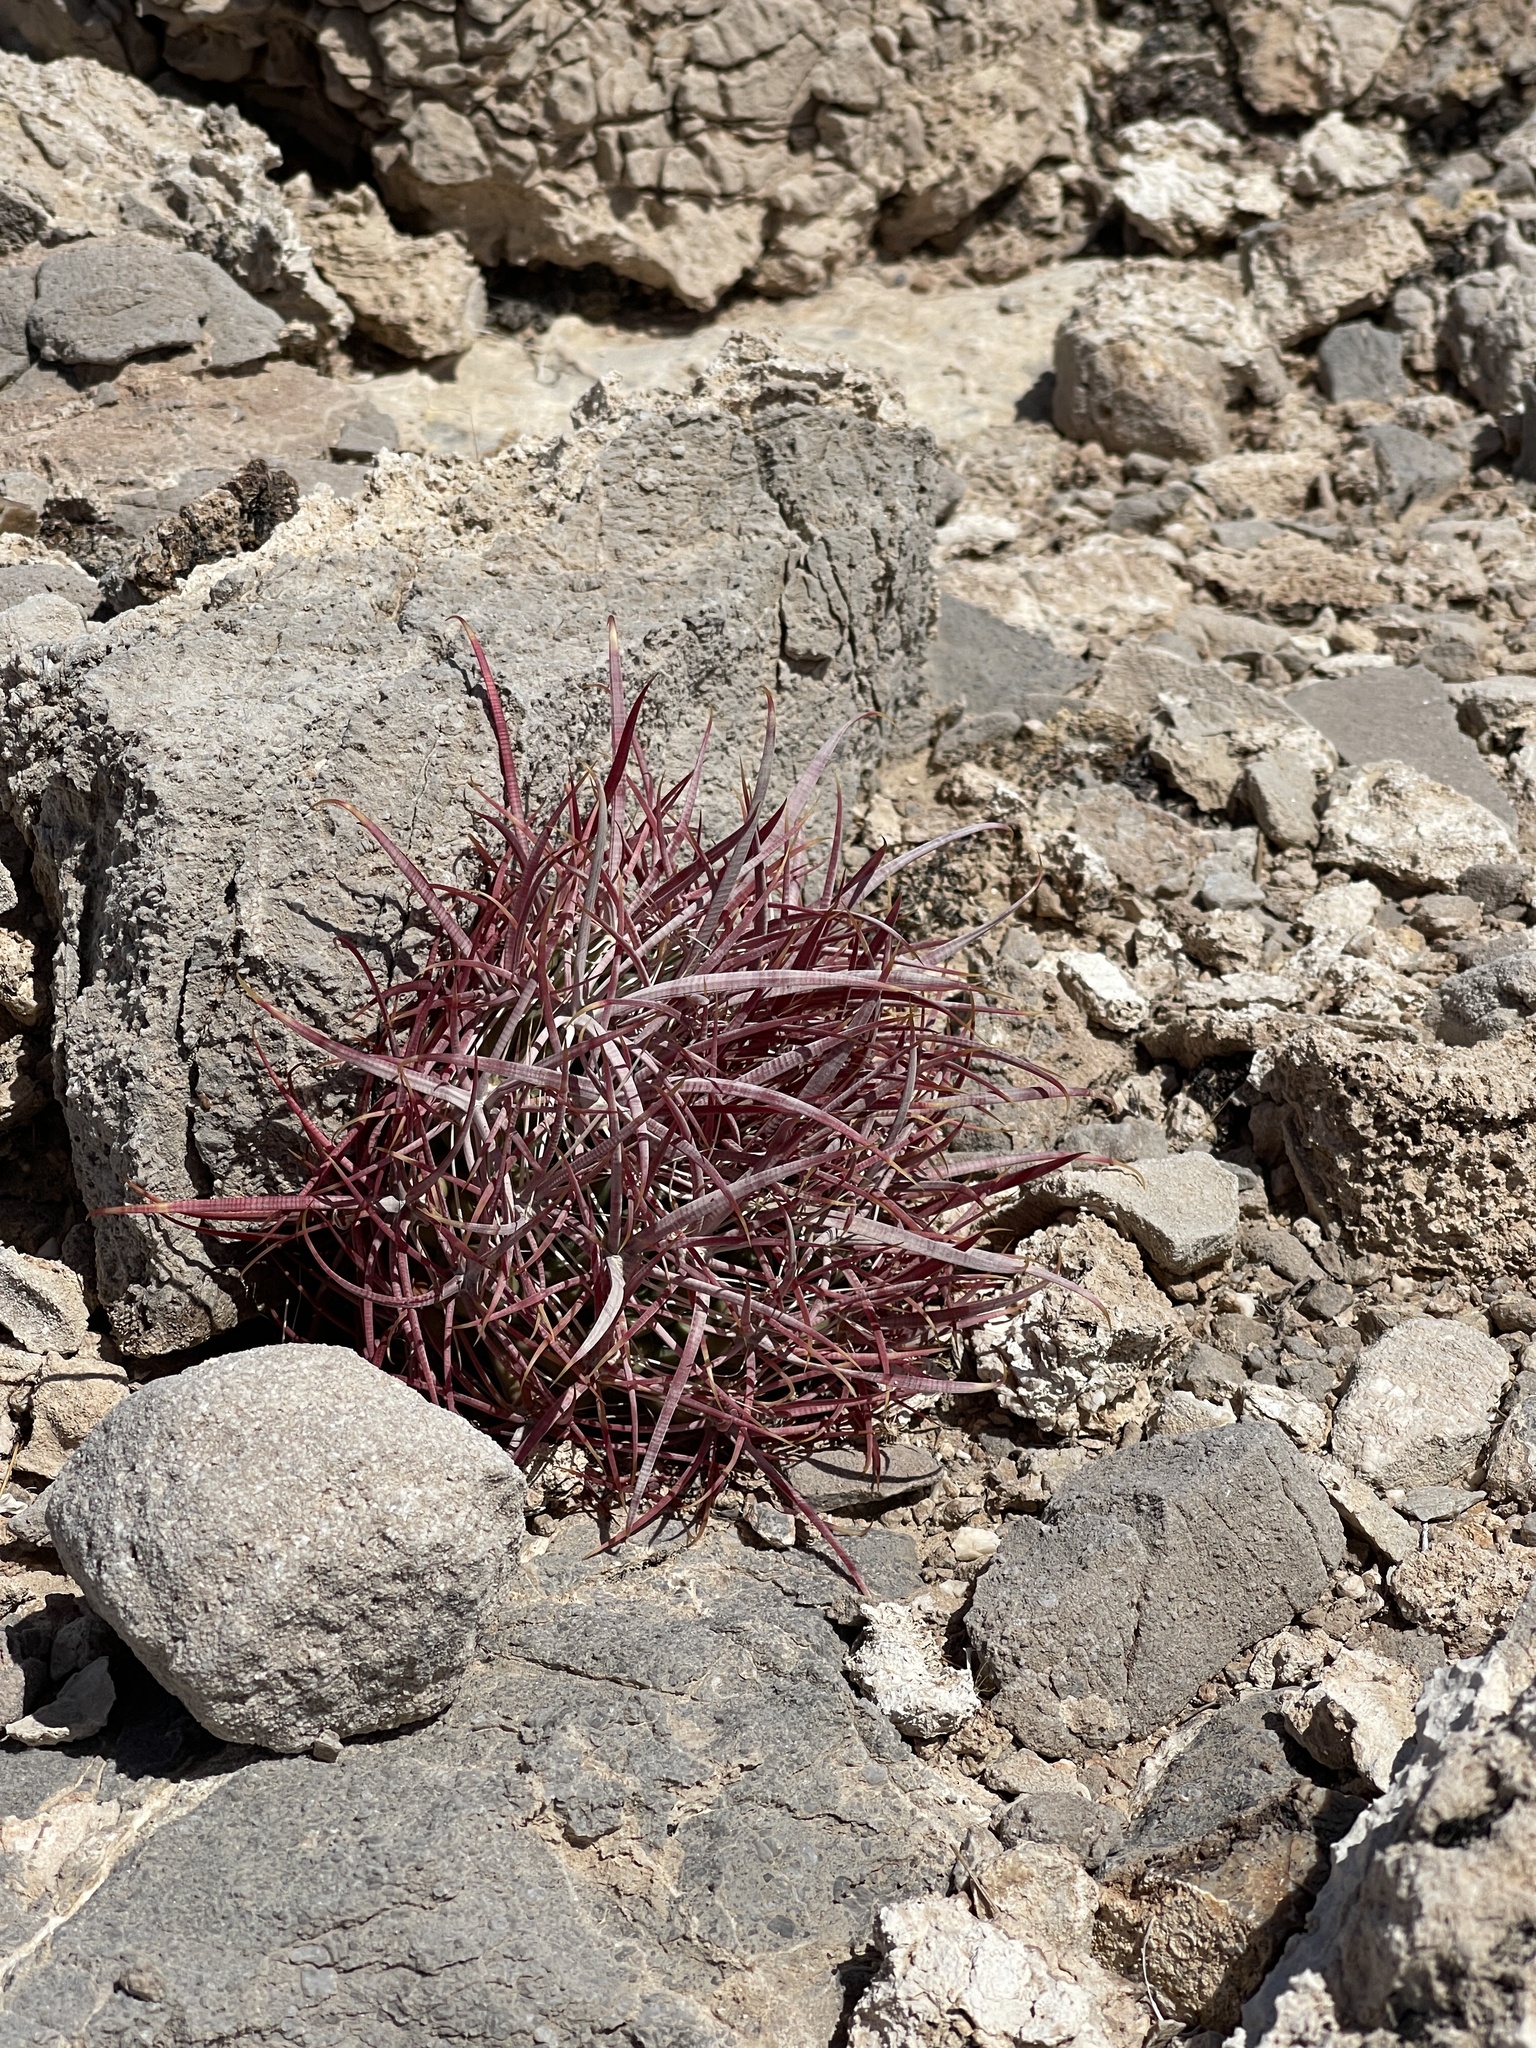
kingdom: Plantae
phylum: Tracheophyta
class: Magnoliopsida
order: Caryophyllales
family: Cactaceae
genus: Ferocactus
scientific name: Ferocactus cylindraceus
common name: California barrel cactus
